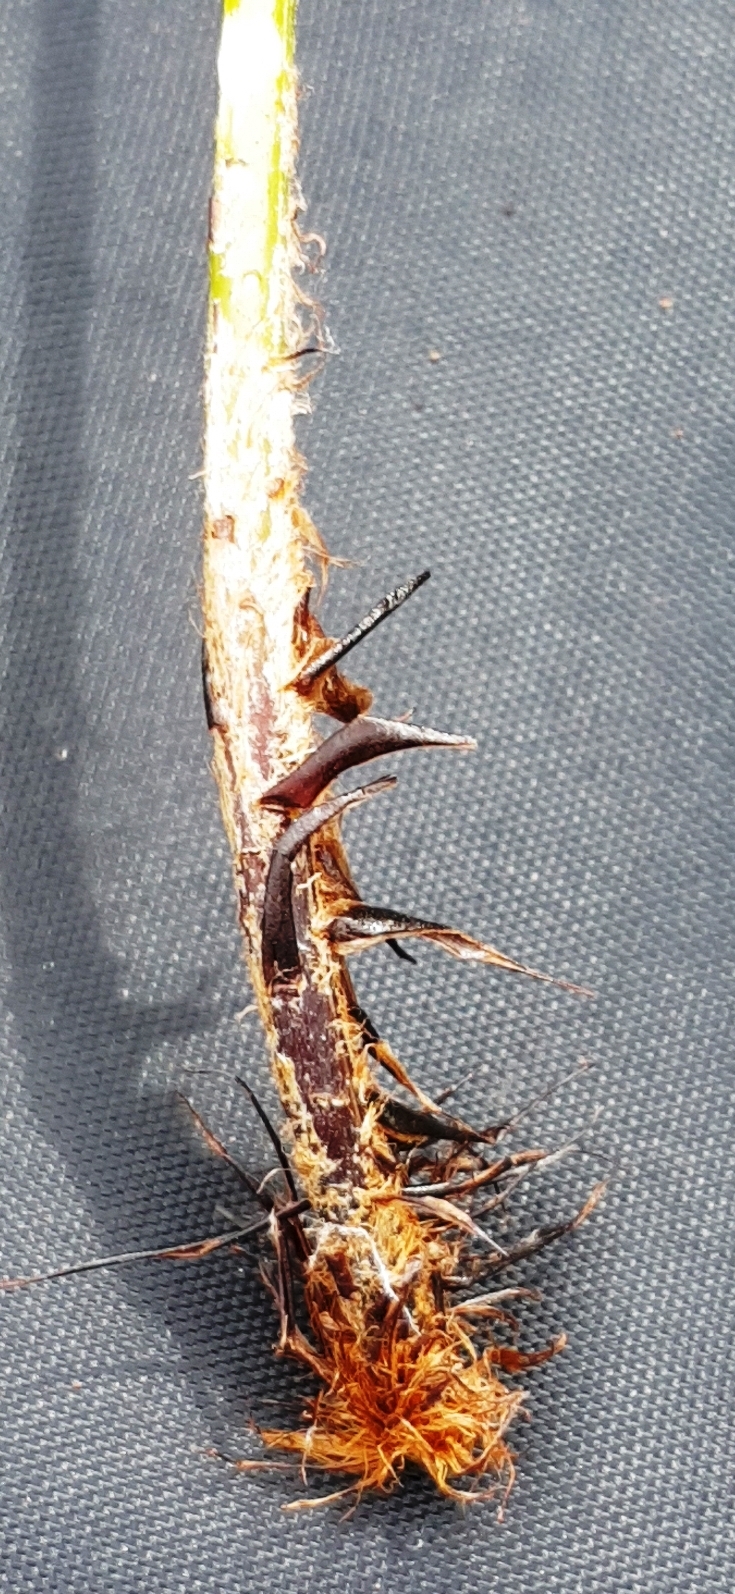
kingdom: Plantae
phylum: Tracheophyta
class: Polypodiopsida
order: Polypodiales
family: Dryopteridaceae
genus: Polystichum
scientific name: Polystichum oculatum
